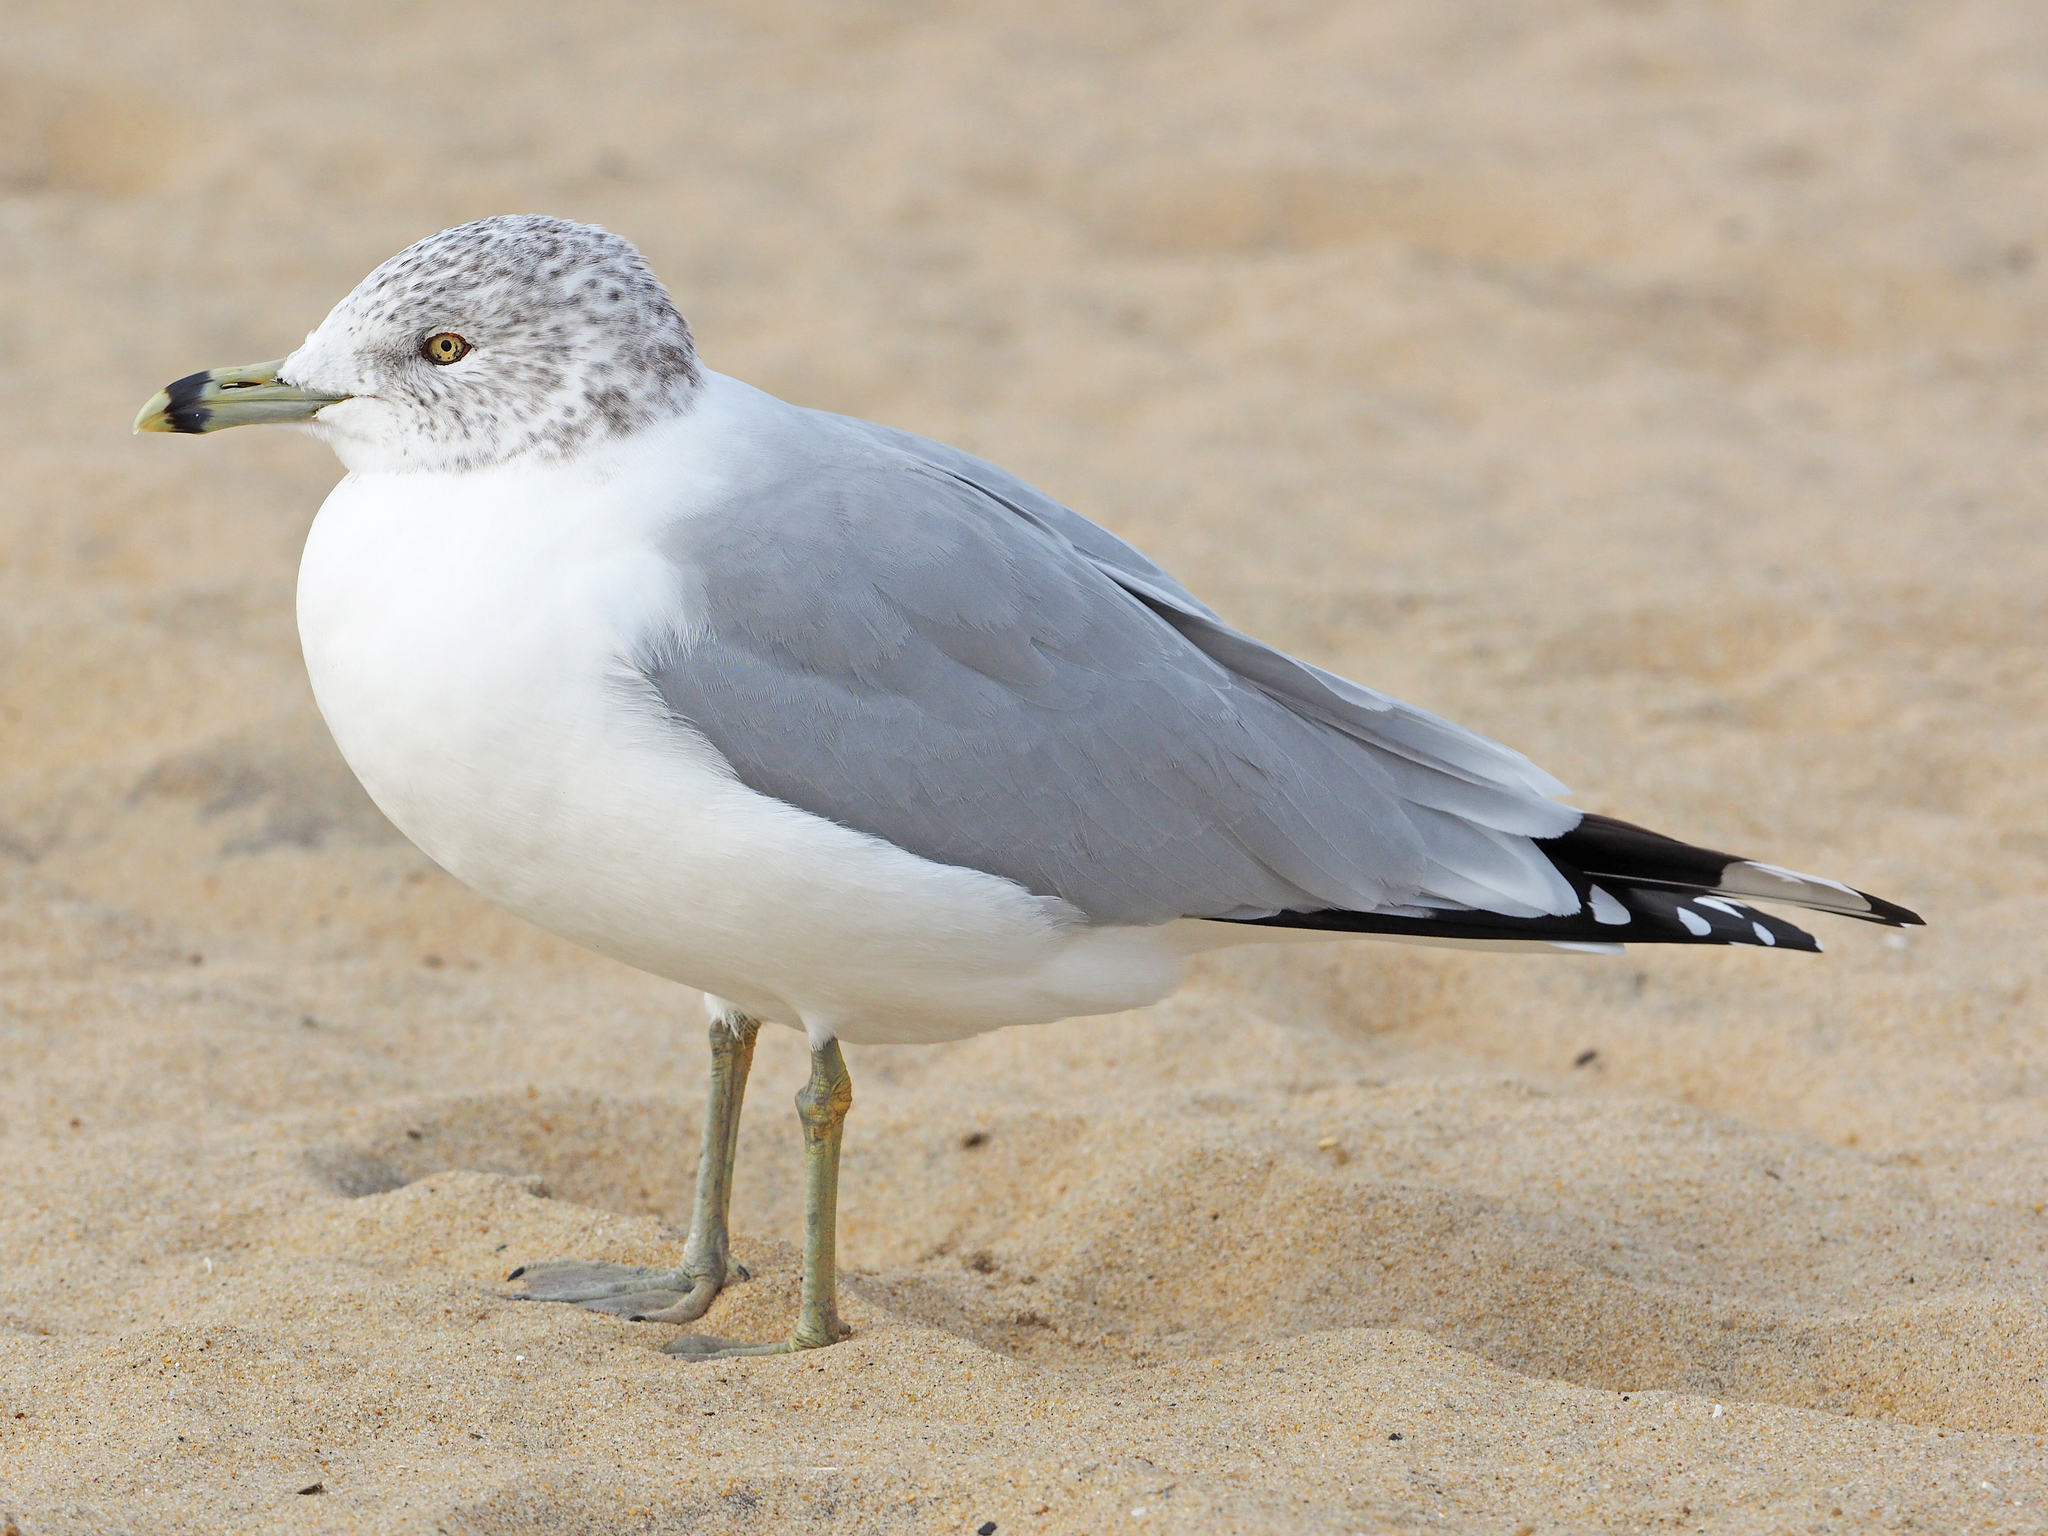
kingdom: Animalia
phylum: Chordata
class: Aves
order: Charadriiformes
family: Laridae
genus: Larus
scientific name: Larus delawarensis
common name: Ring-billed gull
